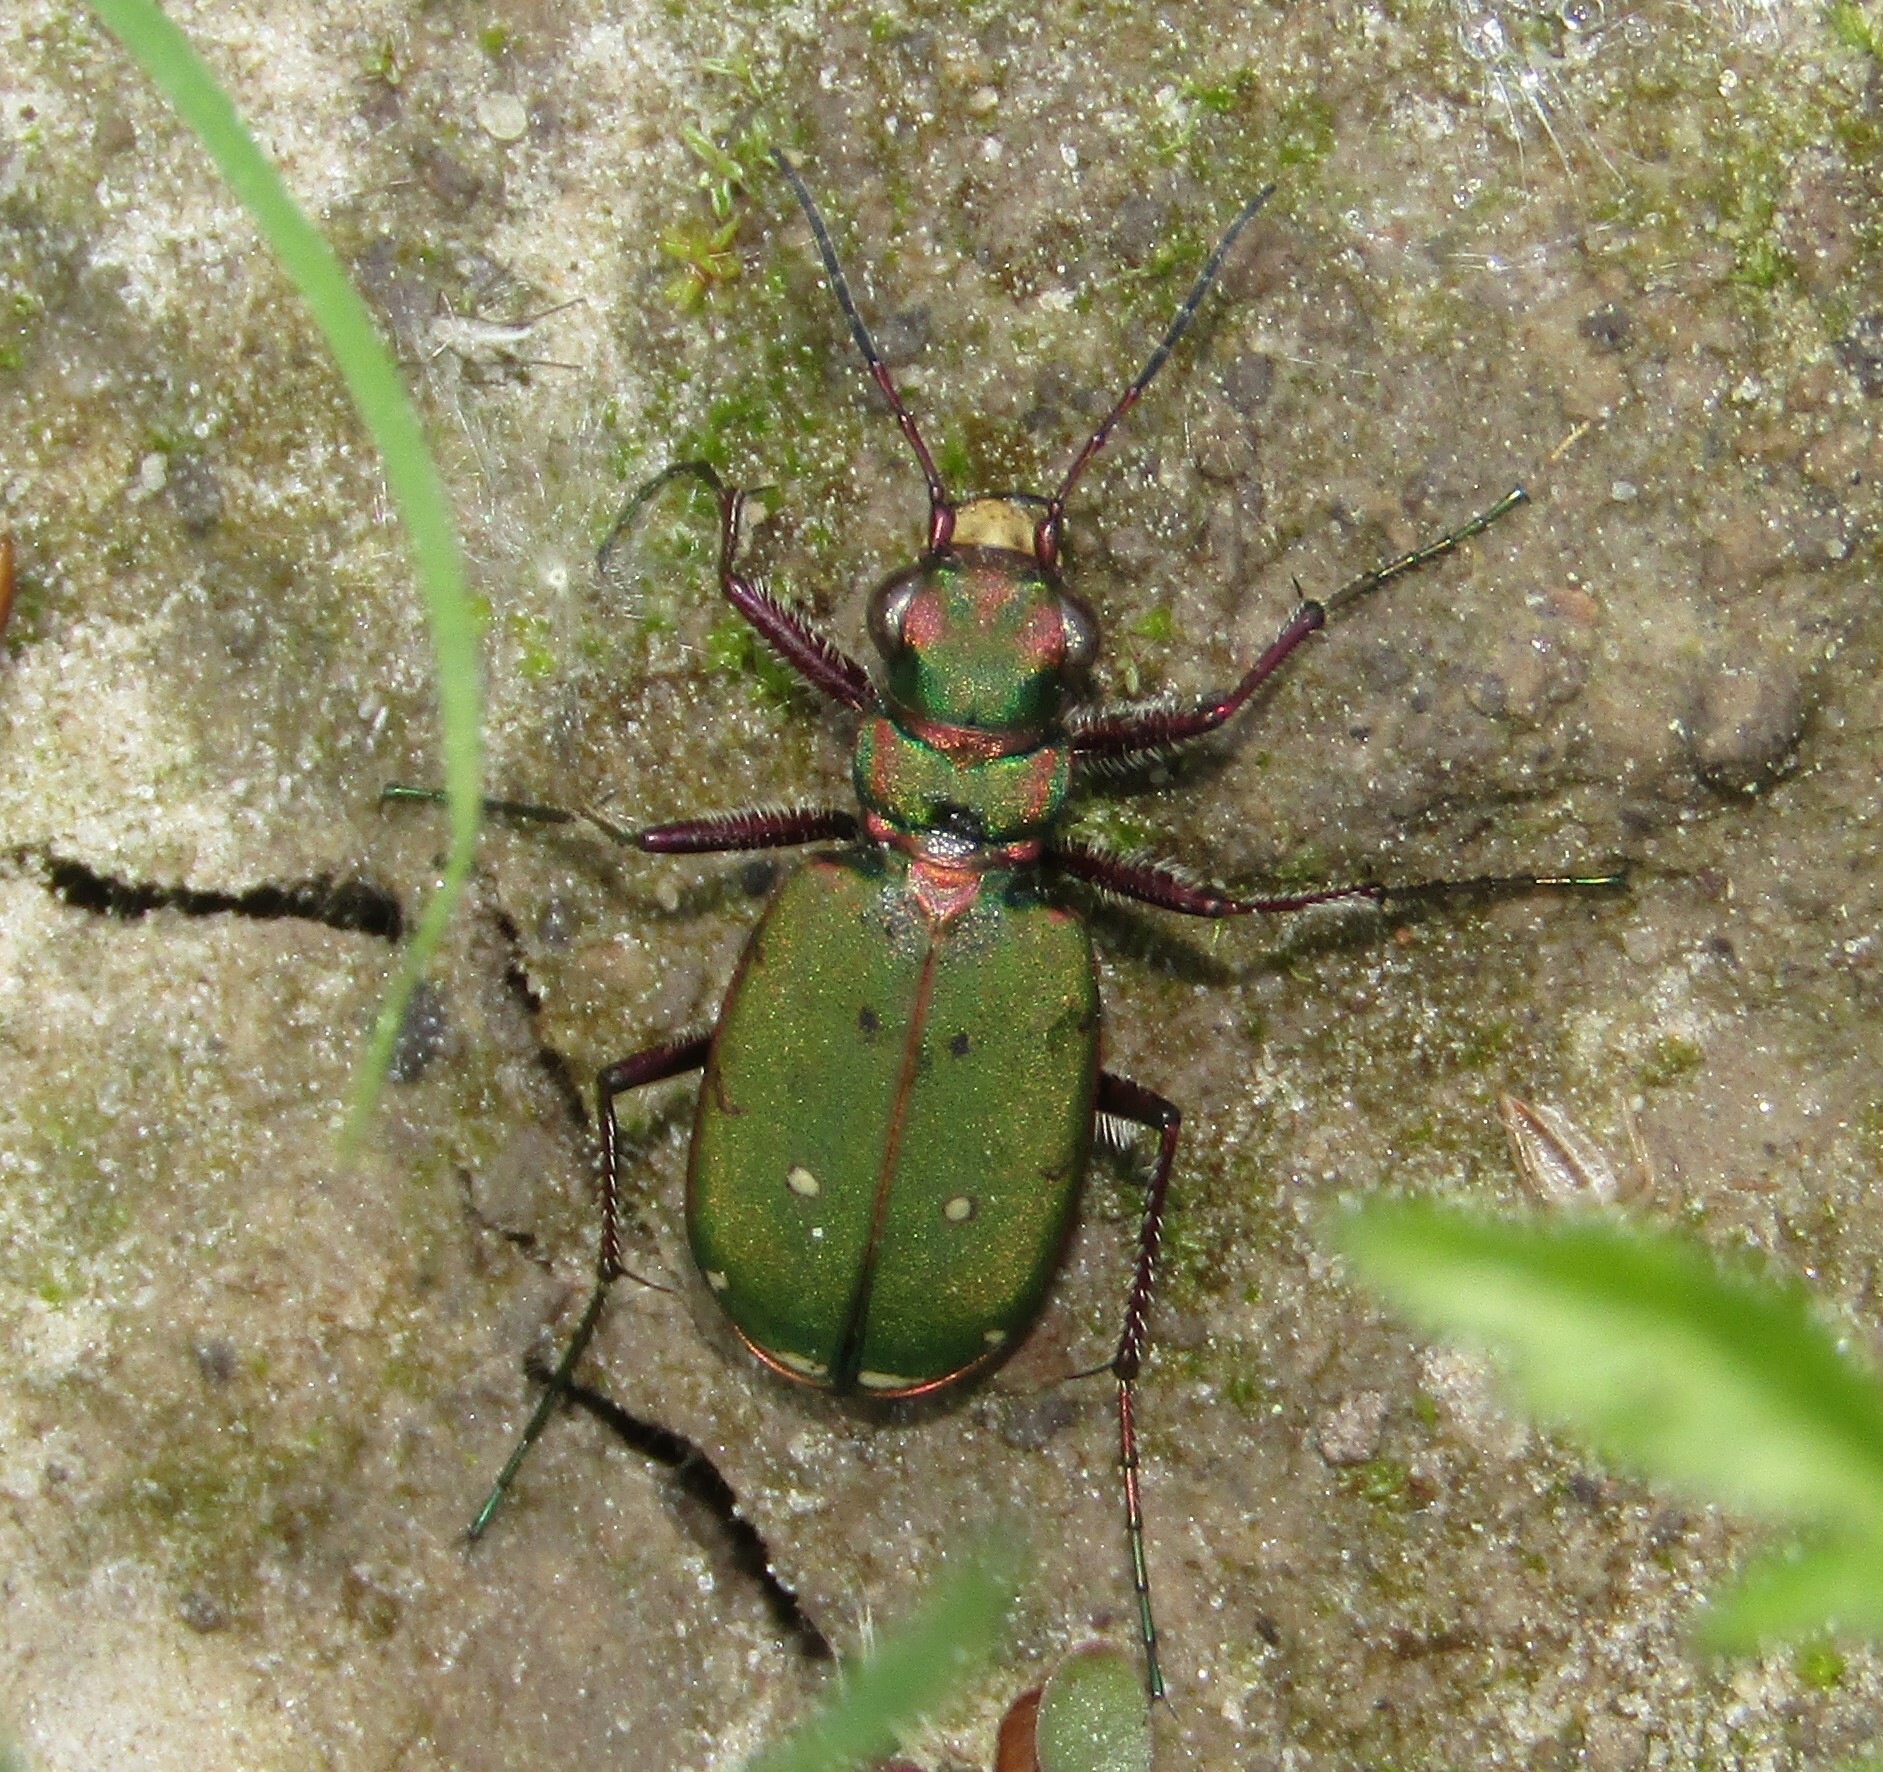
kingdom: Animalia
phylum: Arthropoda
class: Insecta
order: Coleoptera
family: Carabidae
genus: Cicindela
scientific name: Cicindela campestris
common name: Common tiger beetle
